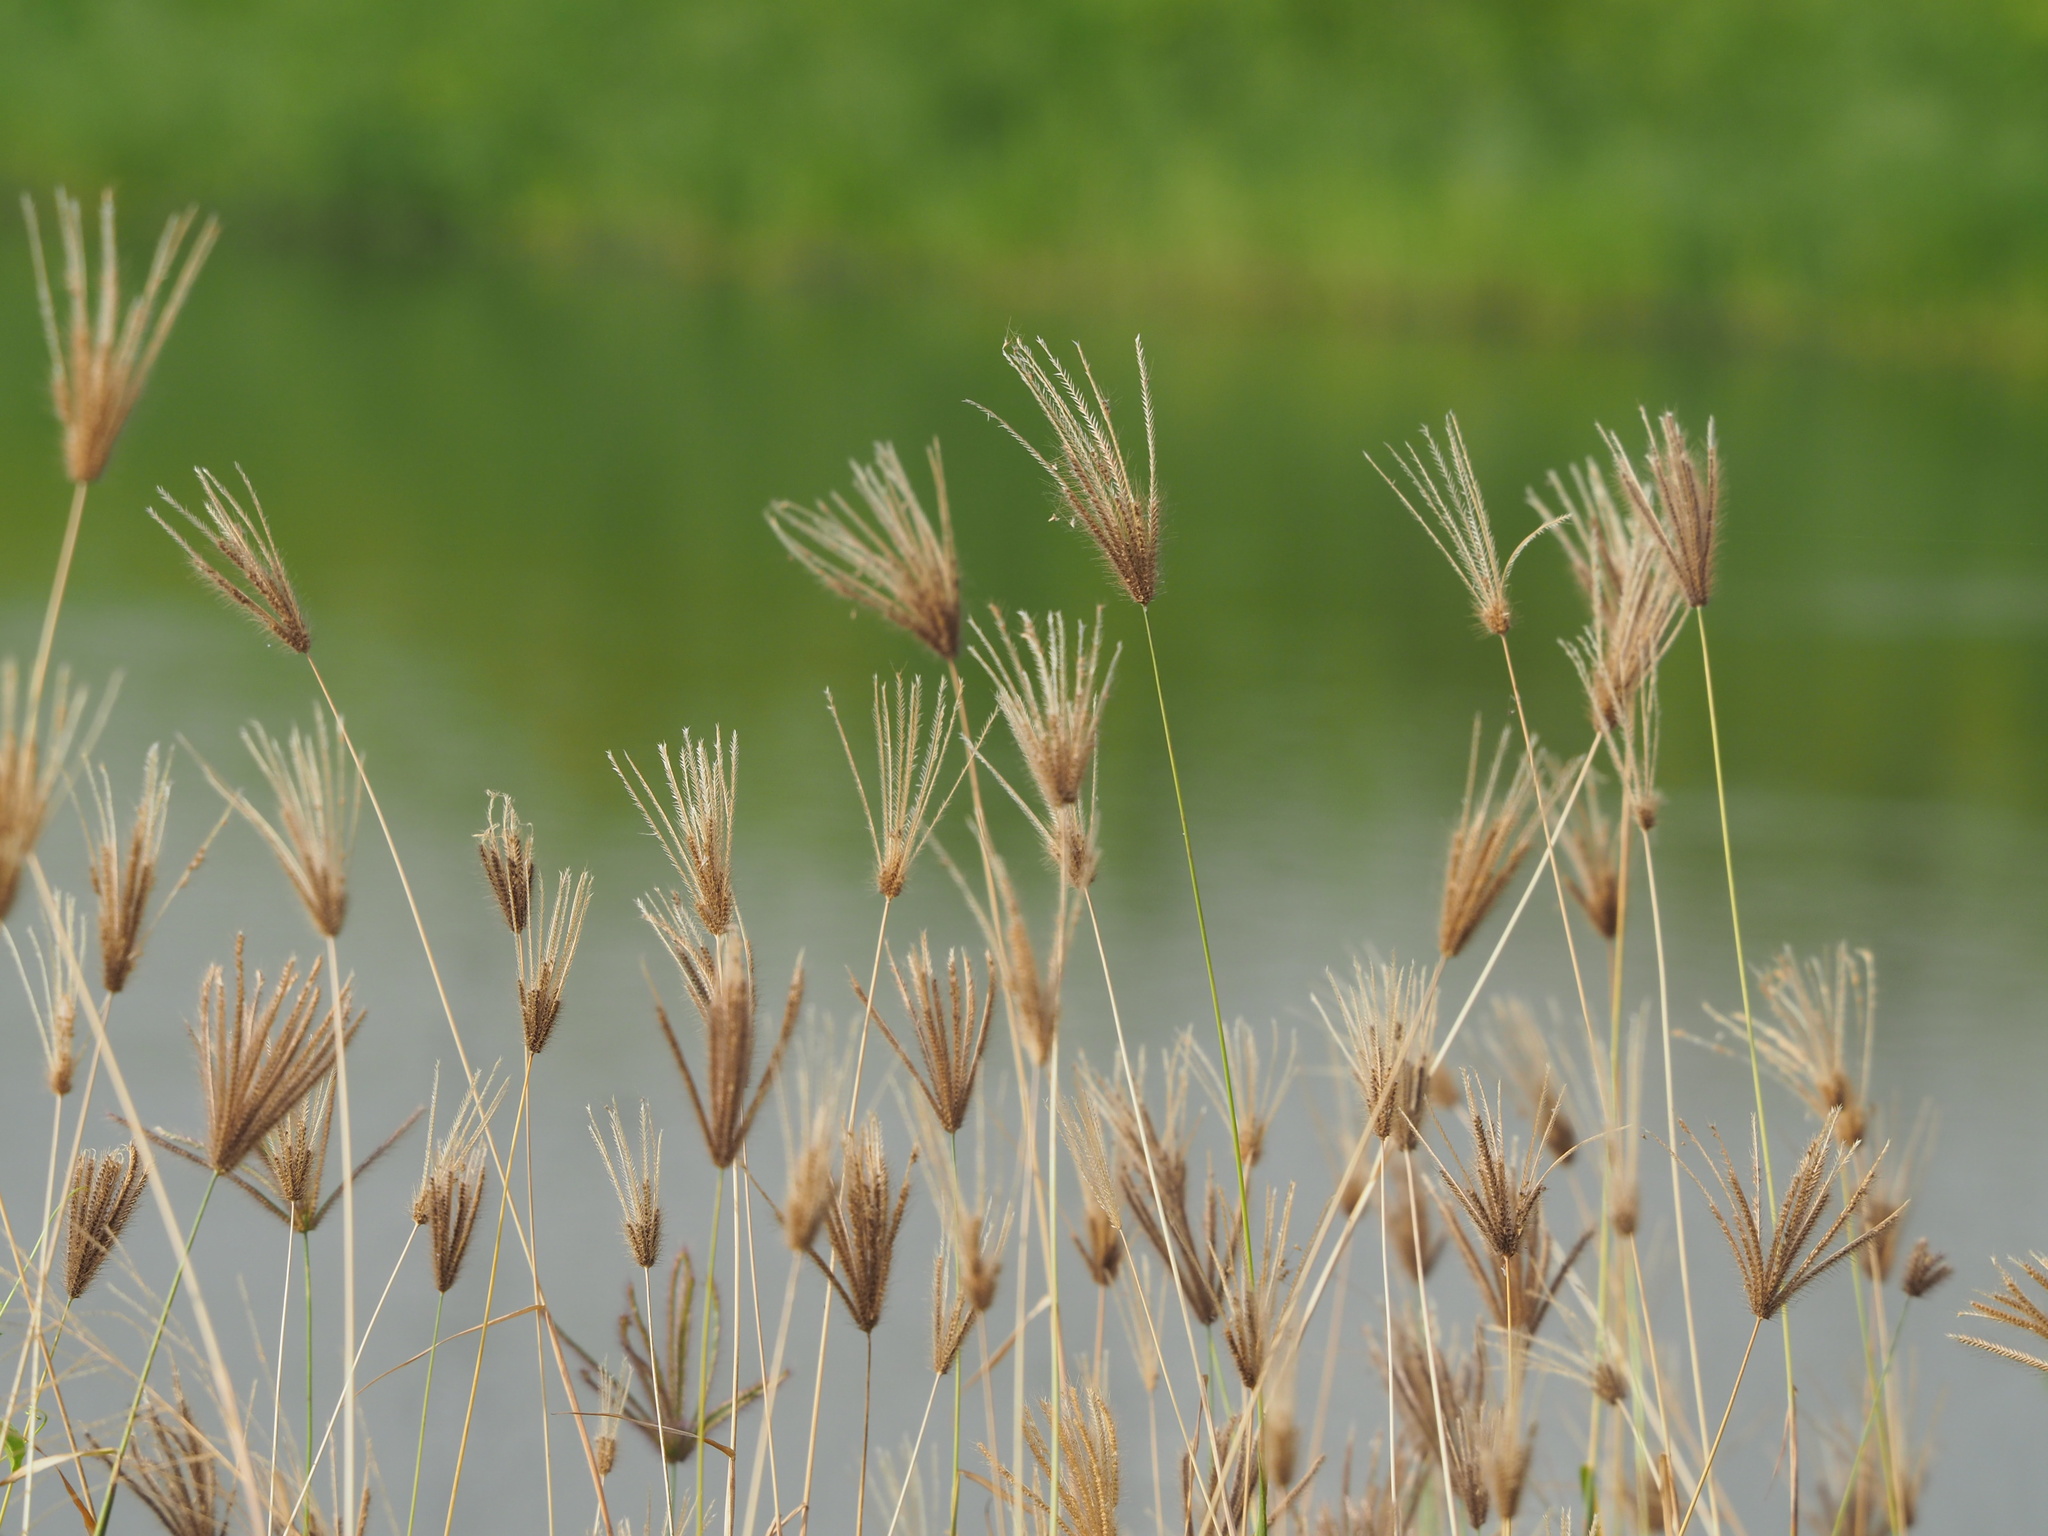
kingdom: Plantae
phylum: Tracheophyta
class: Liliopsida
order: Poales
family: Poaceae
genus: Chloris
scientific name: Chloris barbata
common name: Swollen fingergrass
